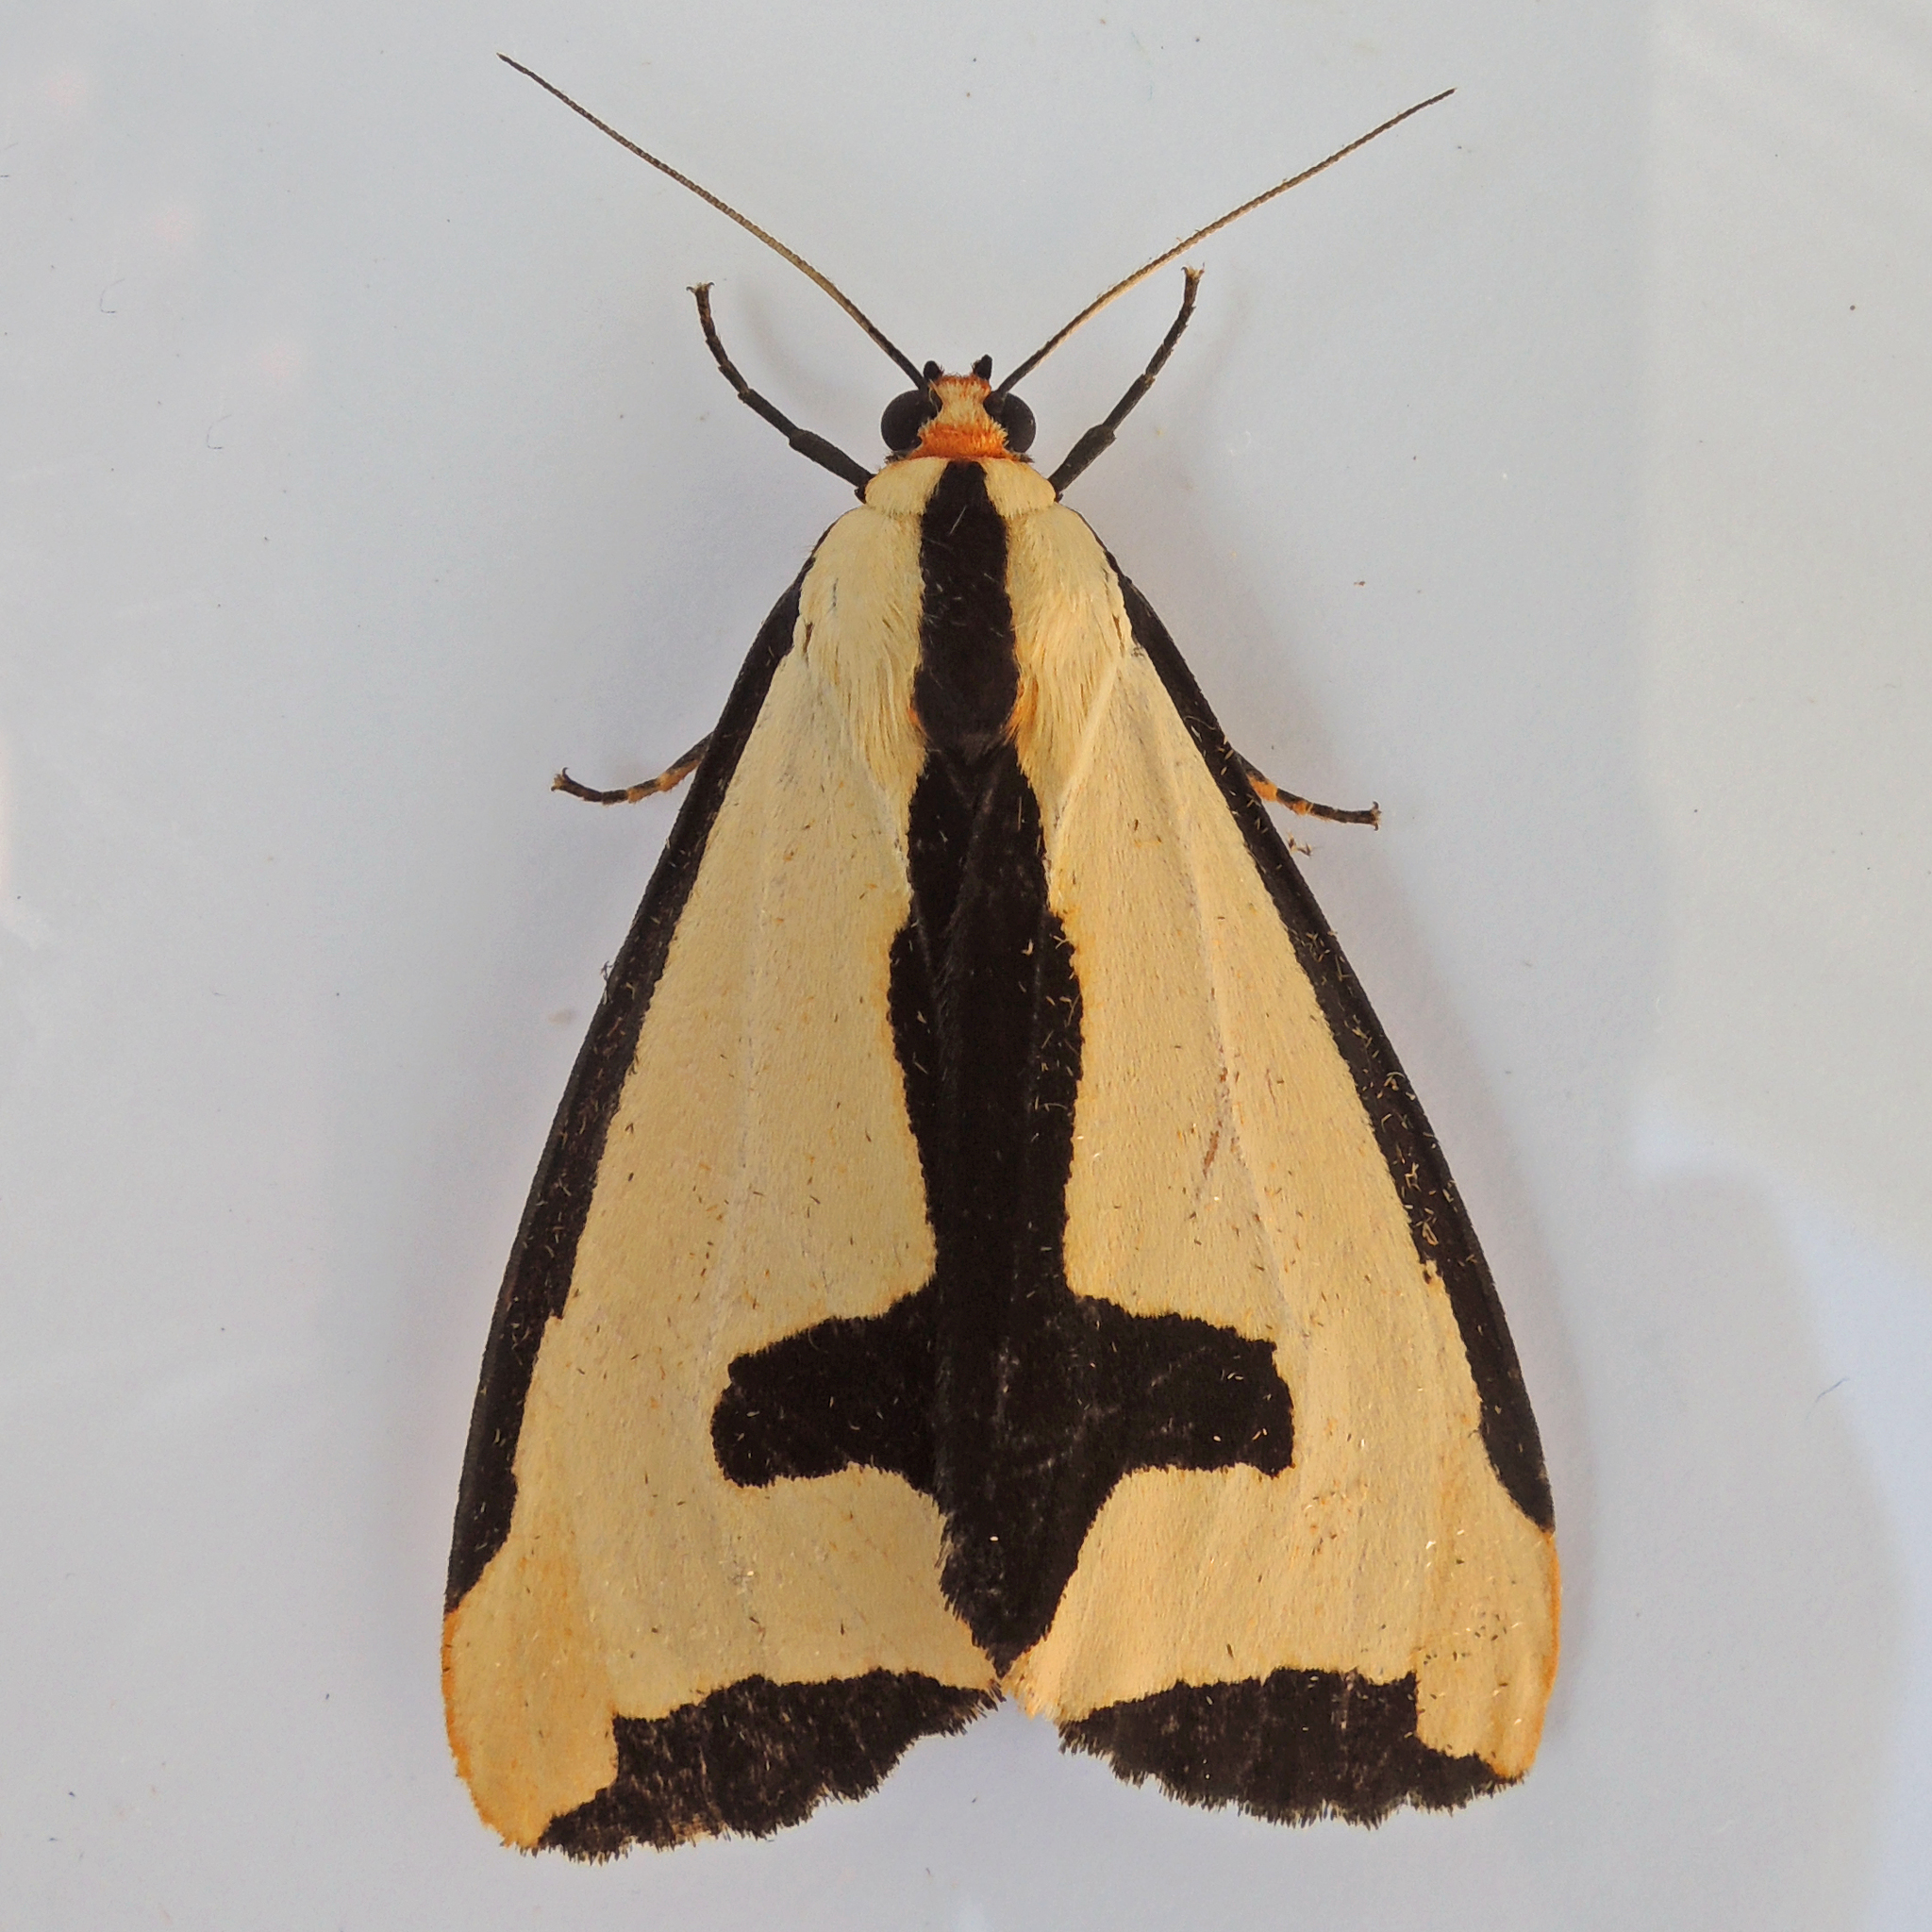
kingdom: Animalia
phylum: Arthropoda
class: Insecta
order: Lepidoptera
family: Erebidae
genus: Haploa
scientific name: Haploa clymene
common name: Clymene moth
